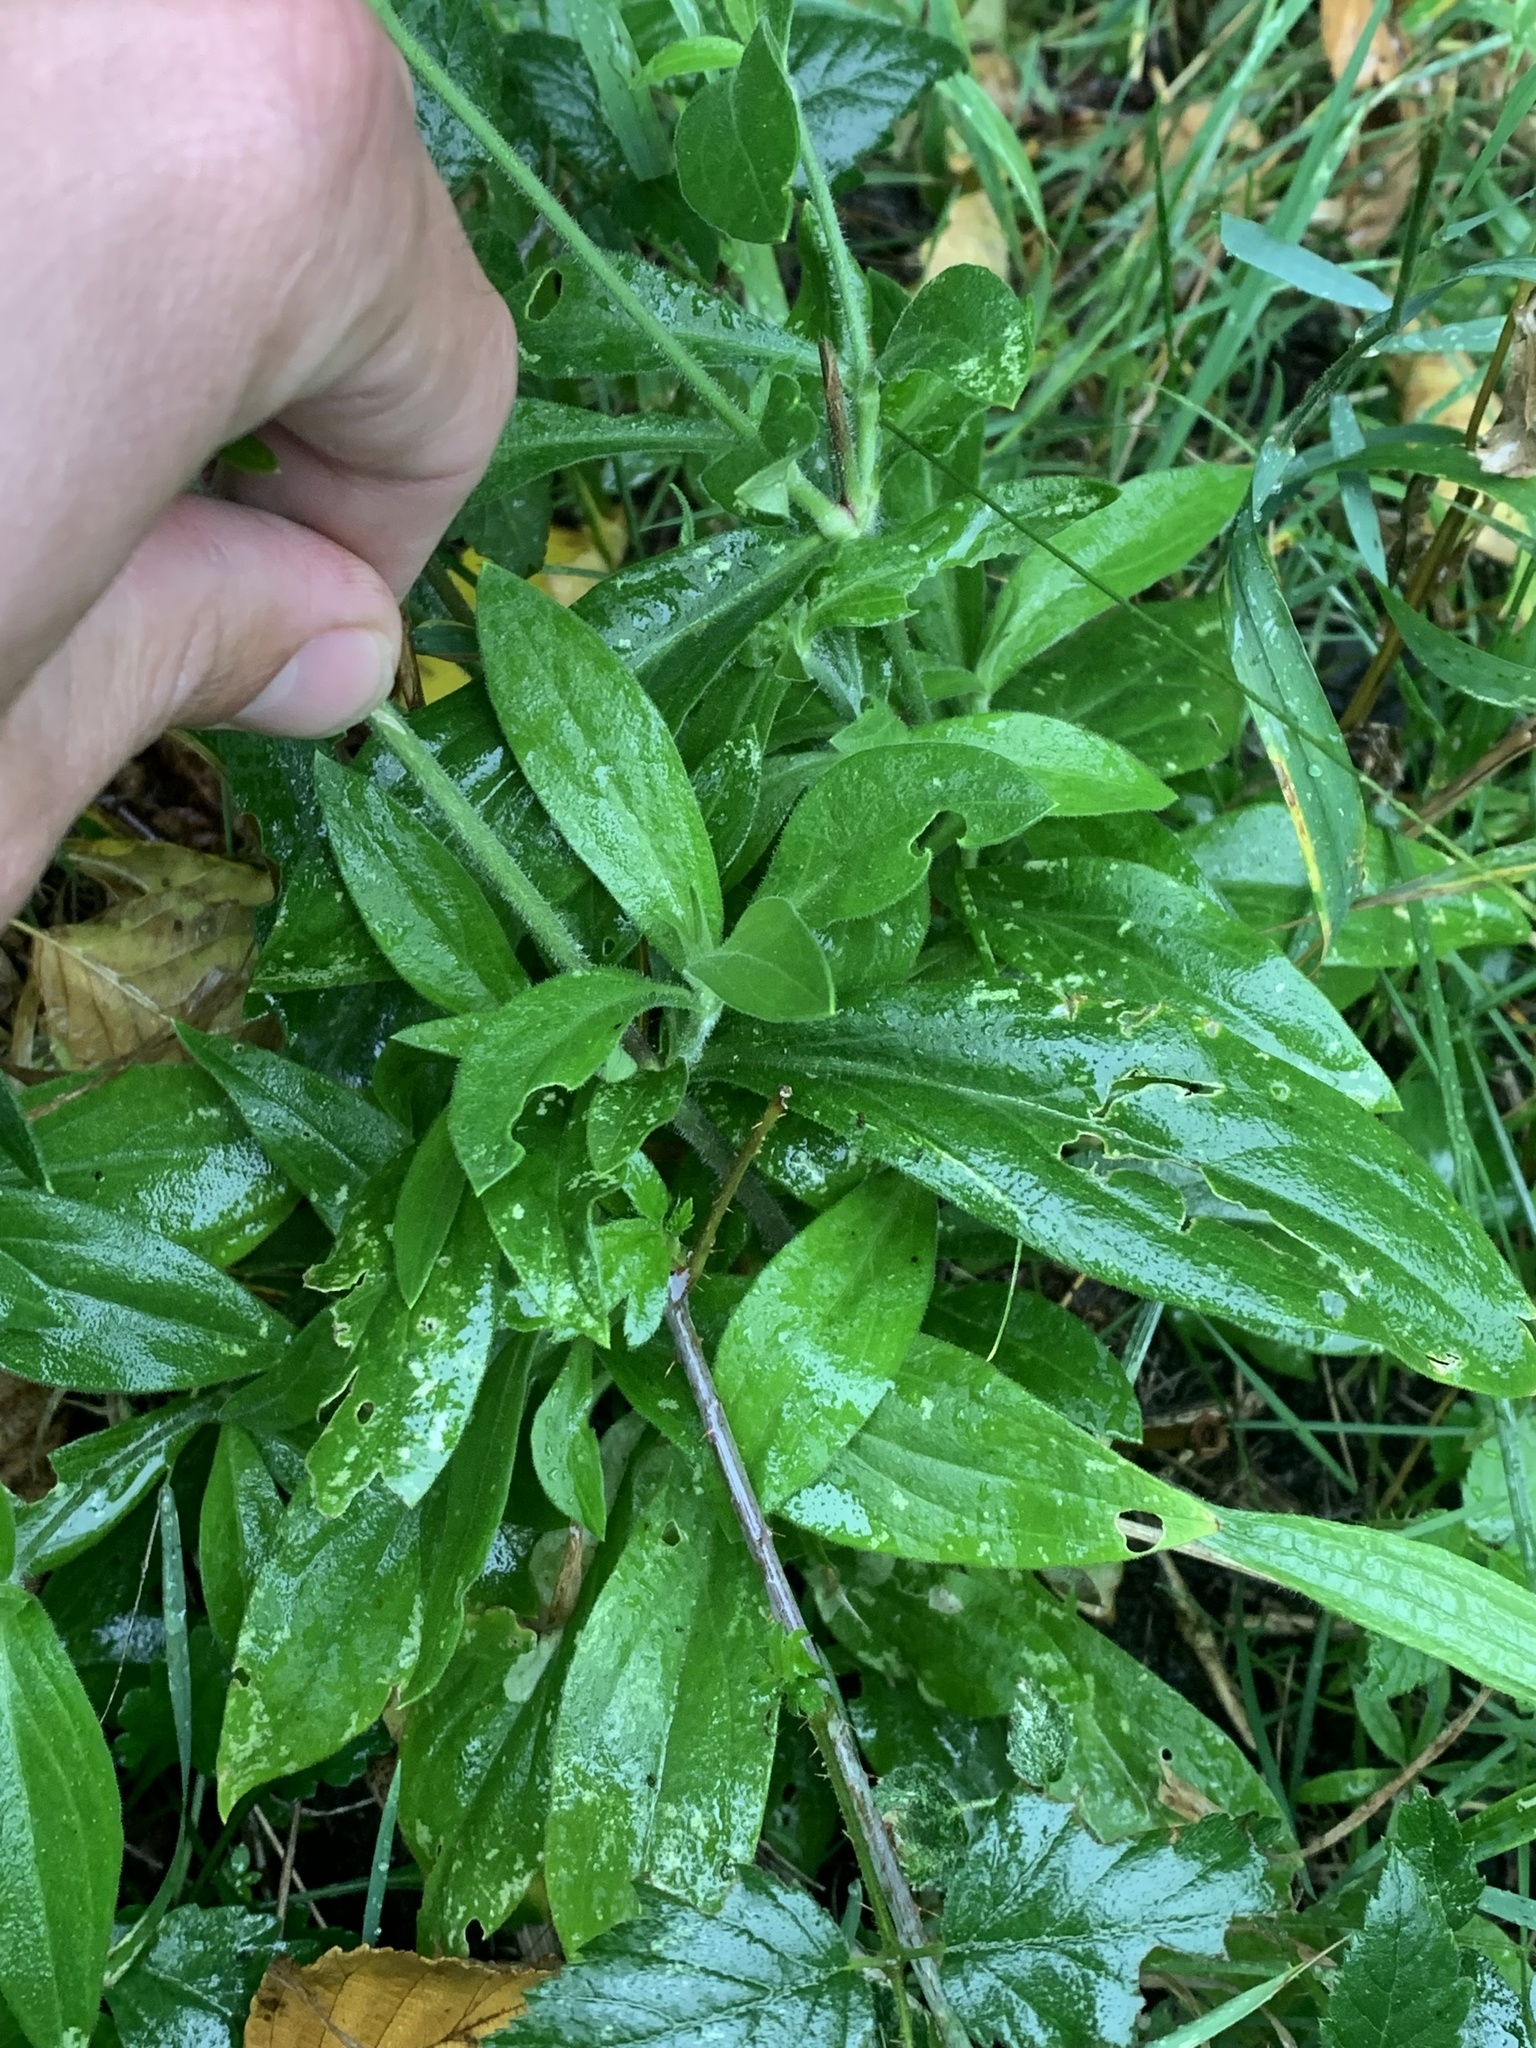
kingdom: Plantae
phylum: Tracheophyta
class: Magnoliopsida
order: Caryophyllales
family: Caryophyllaceae
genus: Silene
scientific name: Silene latifolia
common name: White campion
